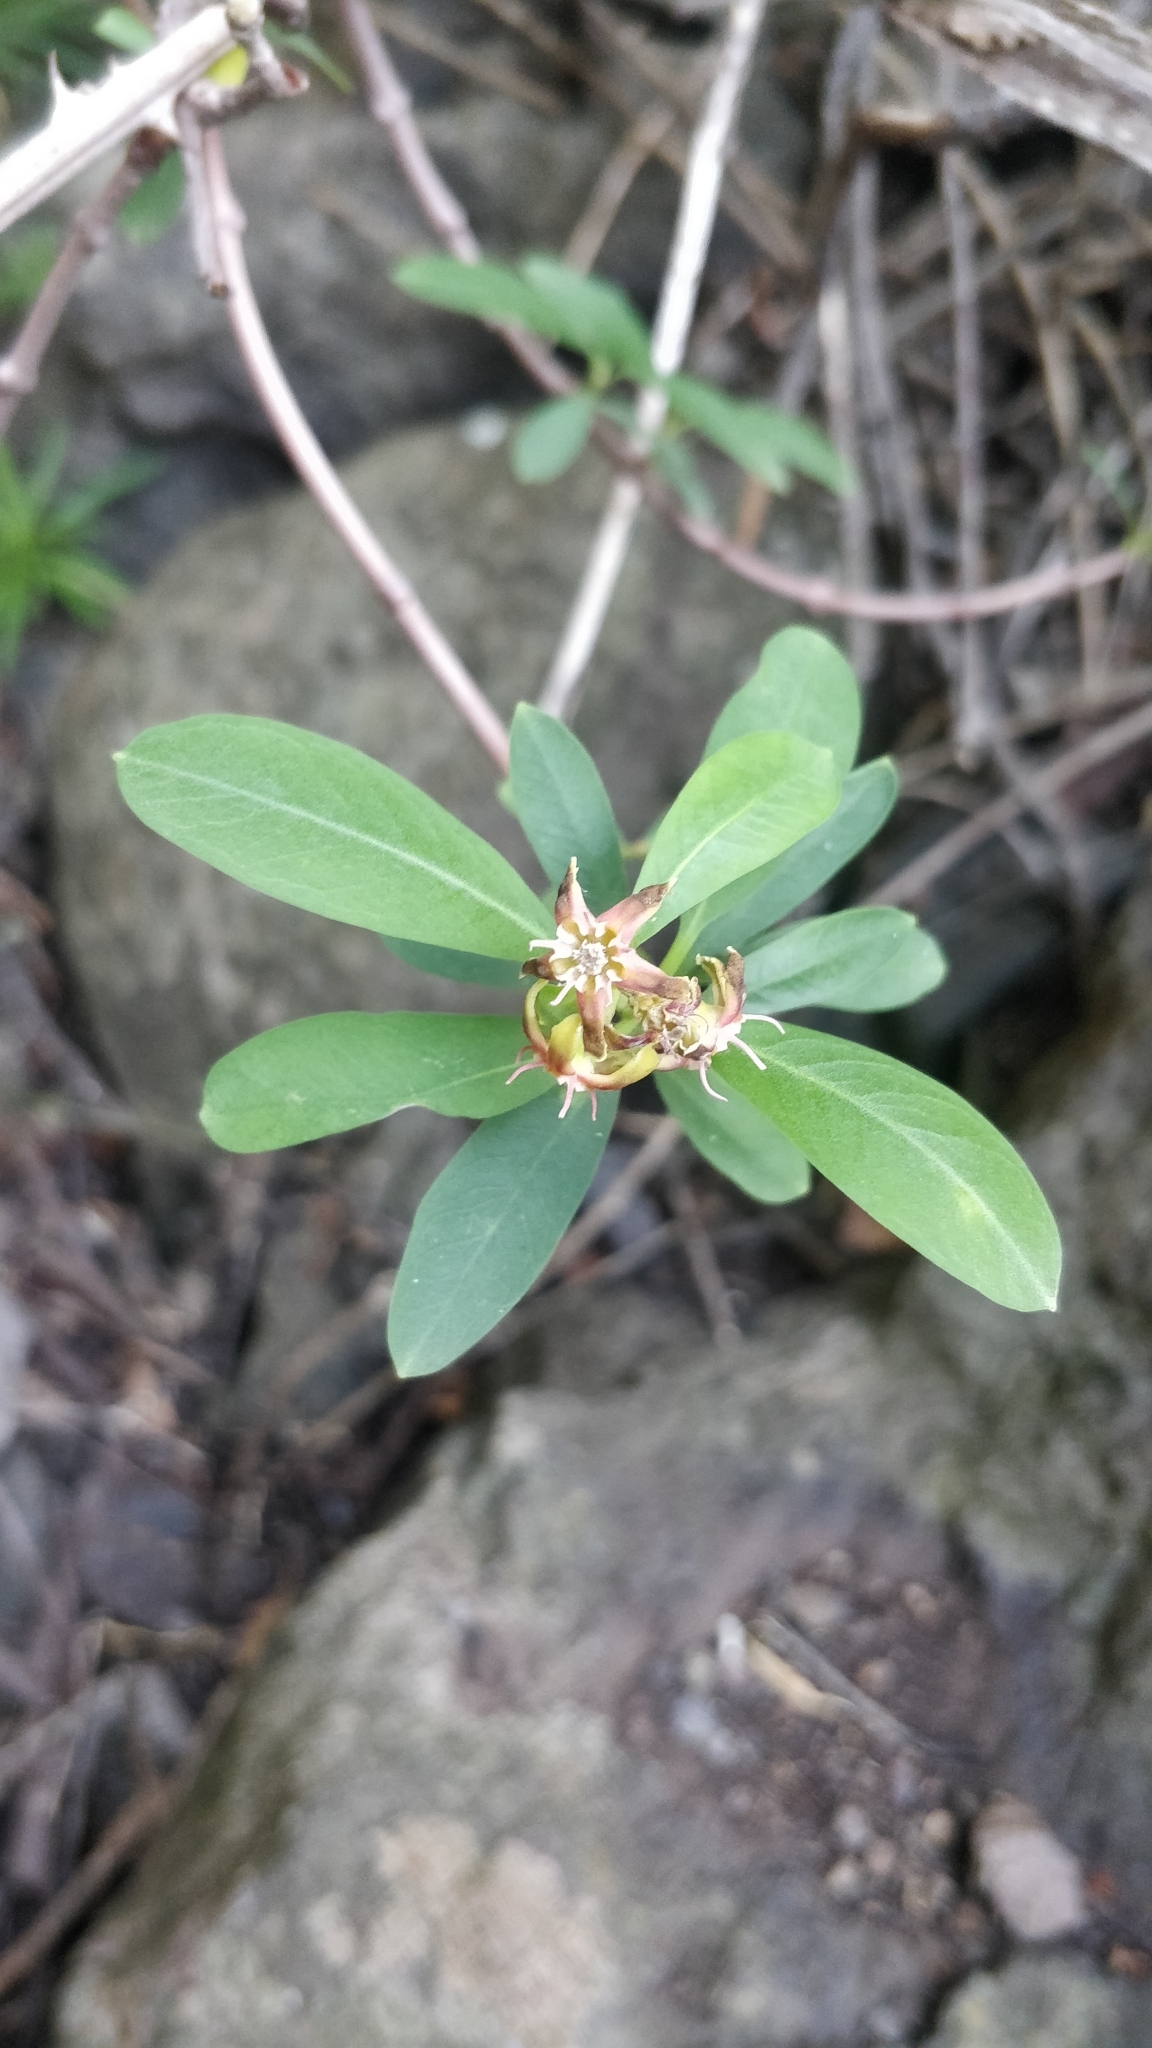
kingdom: Plantae
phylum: Tracheophyta
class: Magnoliopsida
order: Gentianales
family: Apocynaceae
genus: Periploca
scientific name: Periploca laevigata
